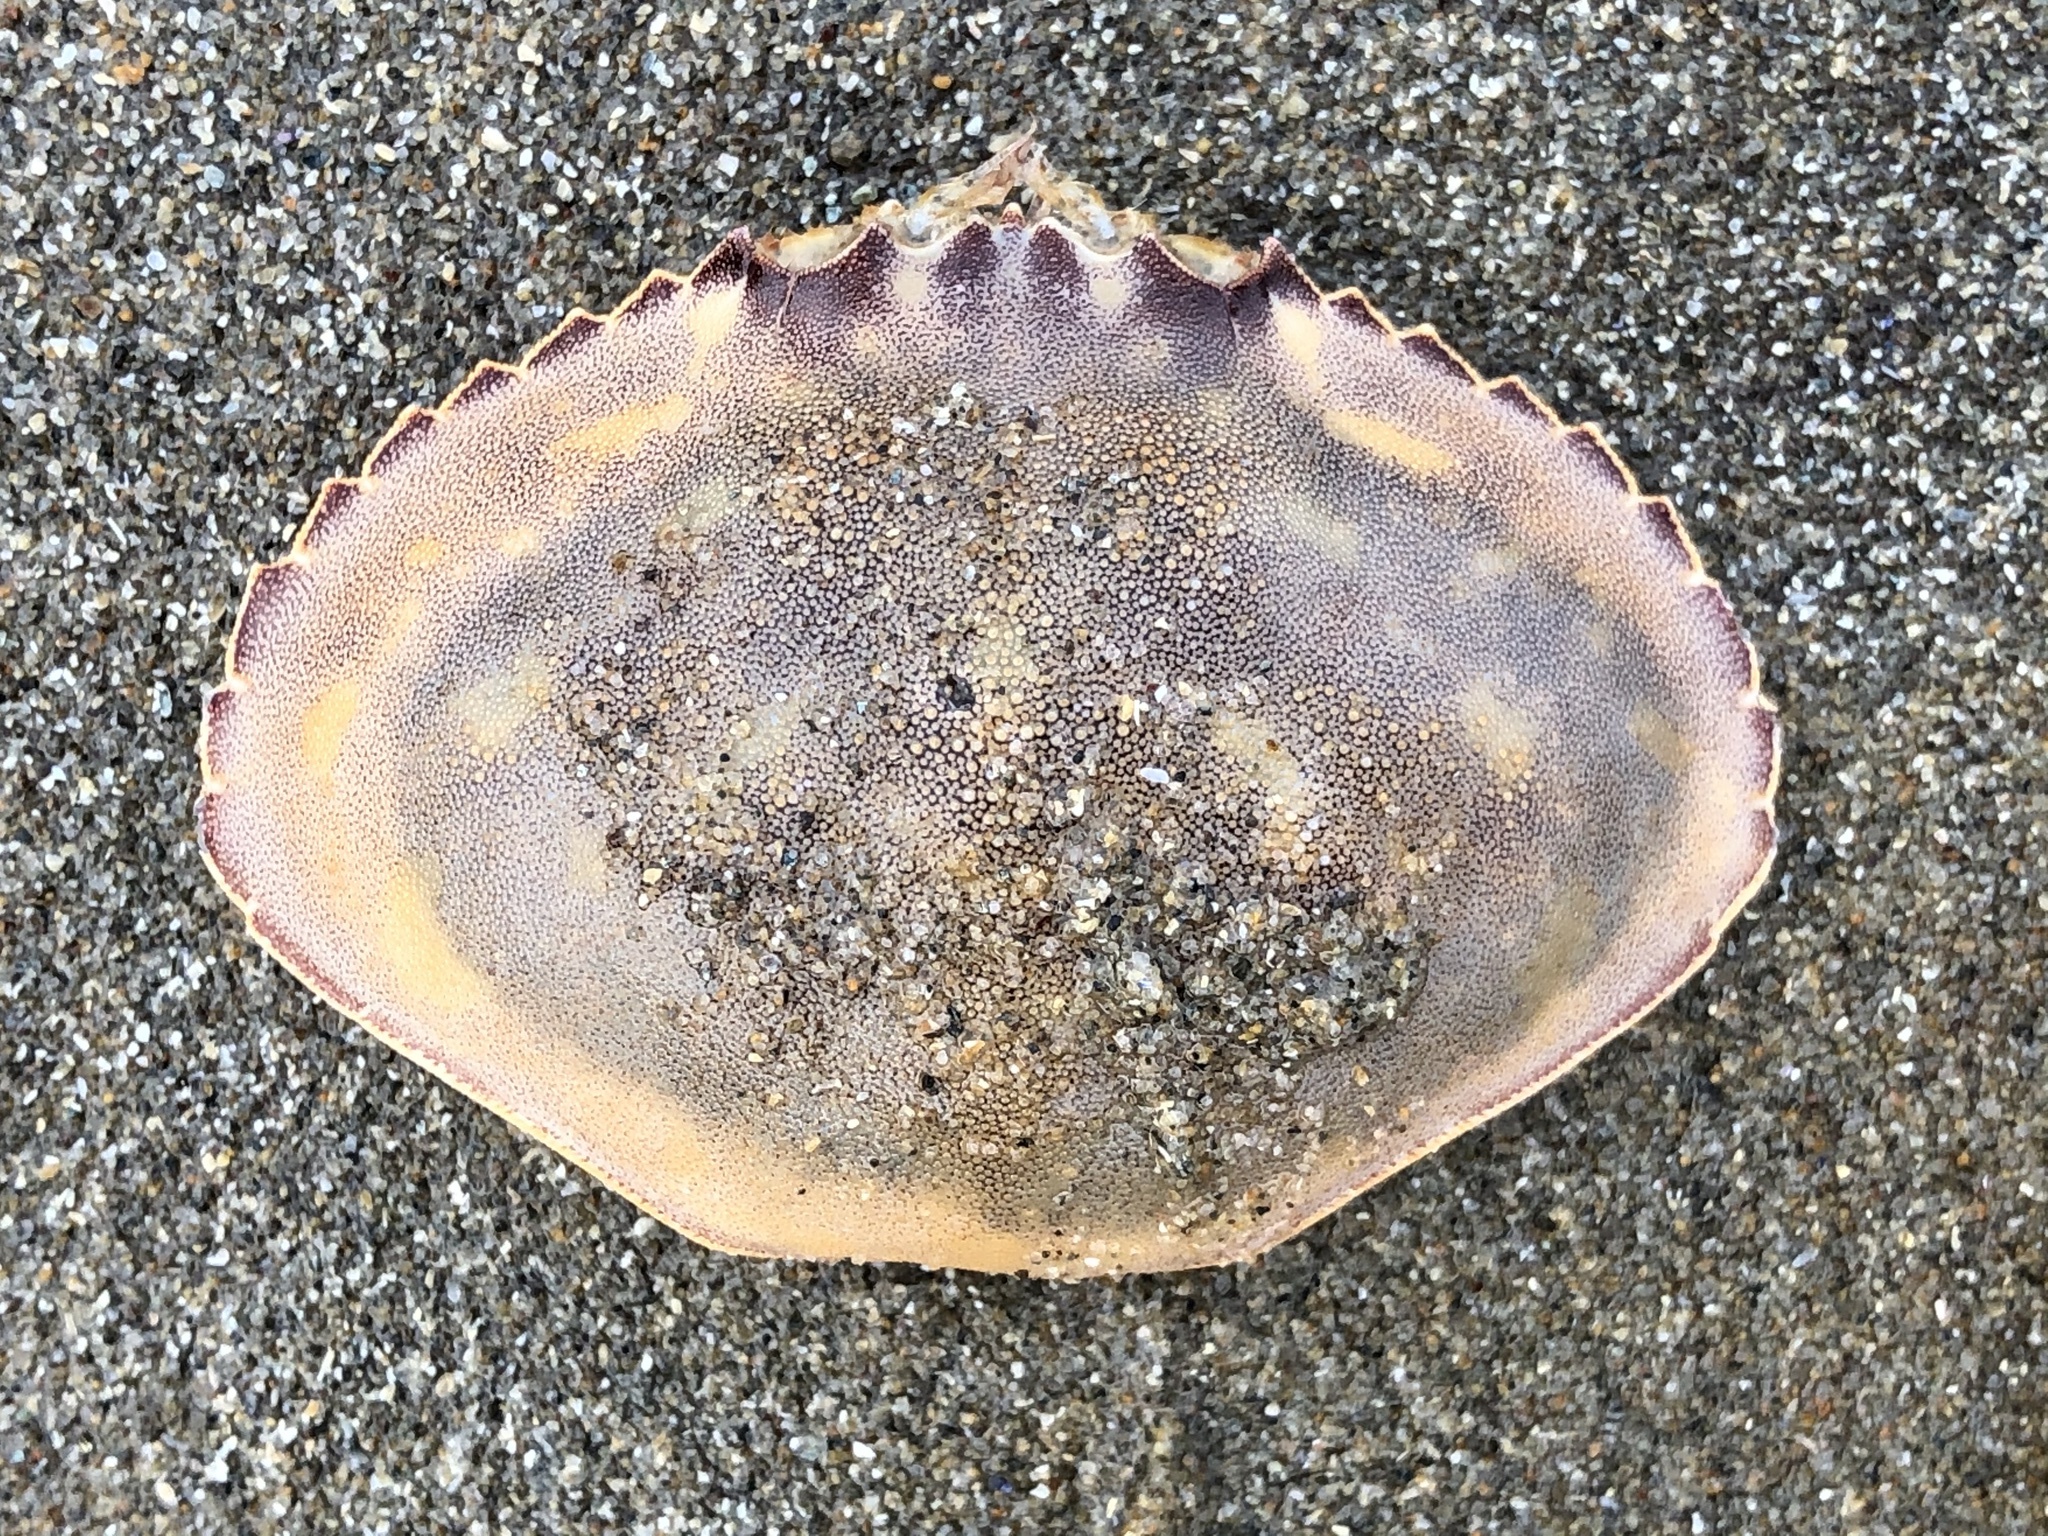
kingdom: Animalia
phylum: Arthropoda
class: Malacostraca
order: Decapoda
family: Cancridae
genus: Metacarcinus
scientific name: Metacarcinus gracilis
